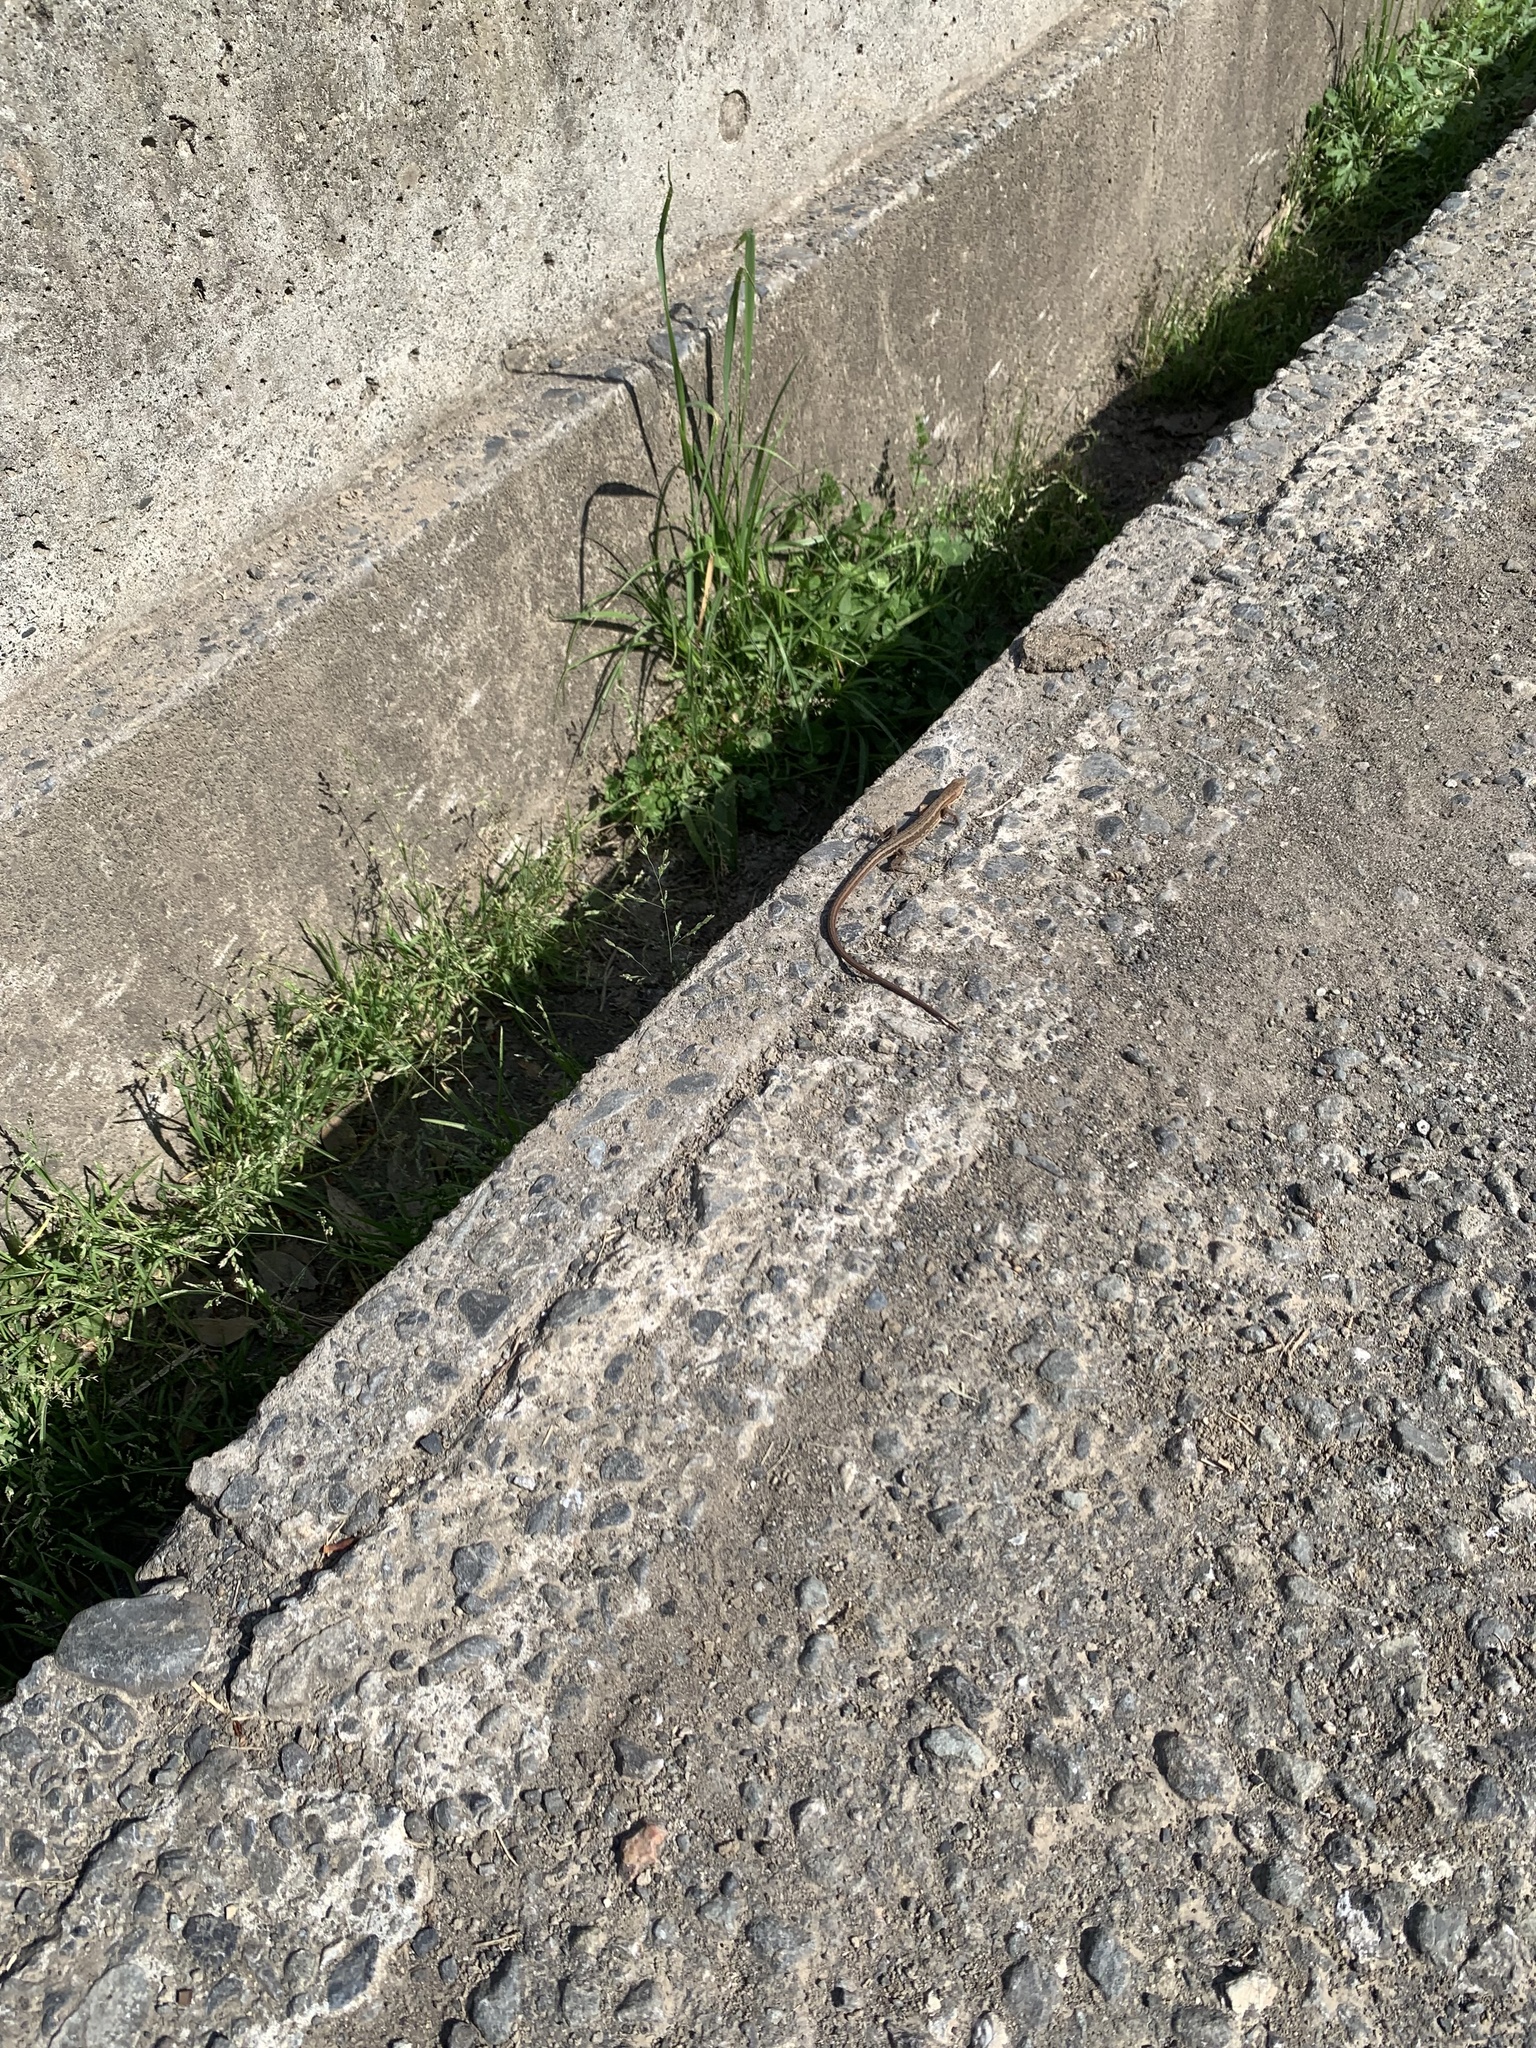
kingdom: Animalia
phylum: Chordata
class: Squamata
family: Lacertidae
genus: Takydromus
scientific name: Takydromus tachydromoides
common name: Japanese grass lizard
